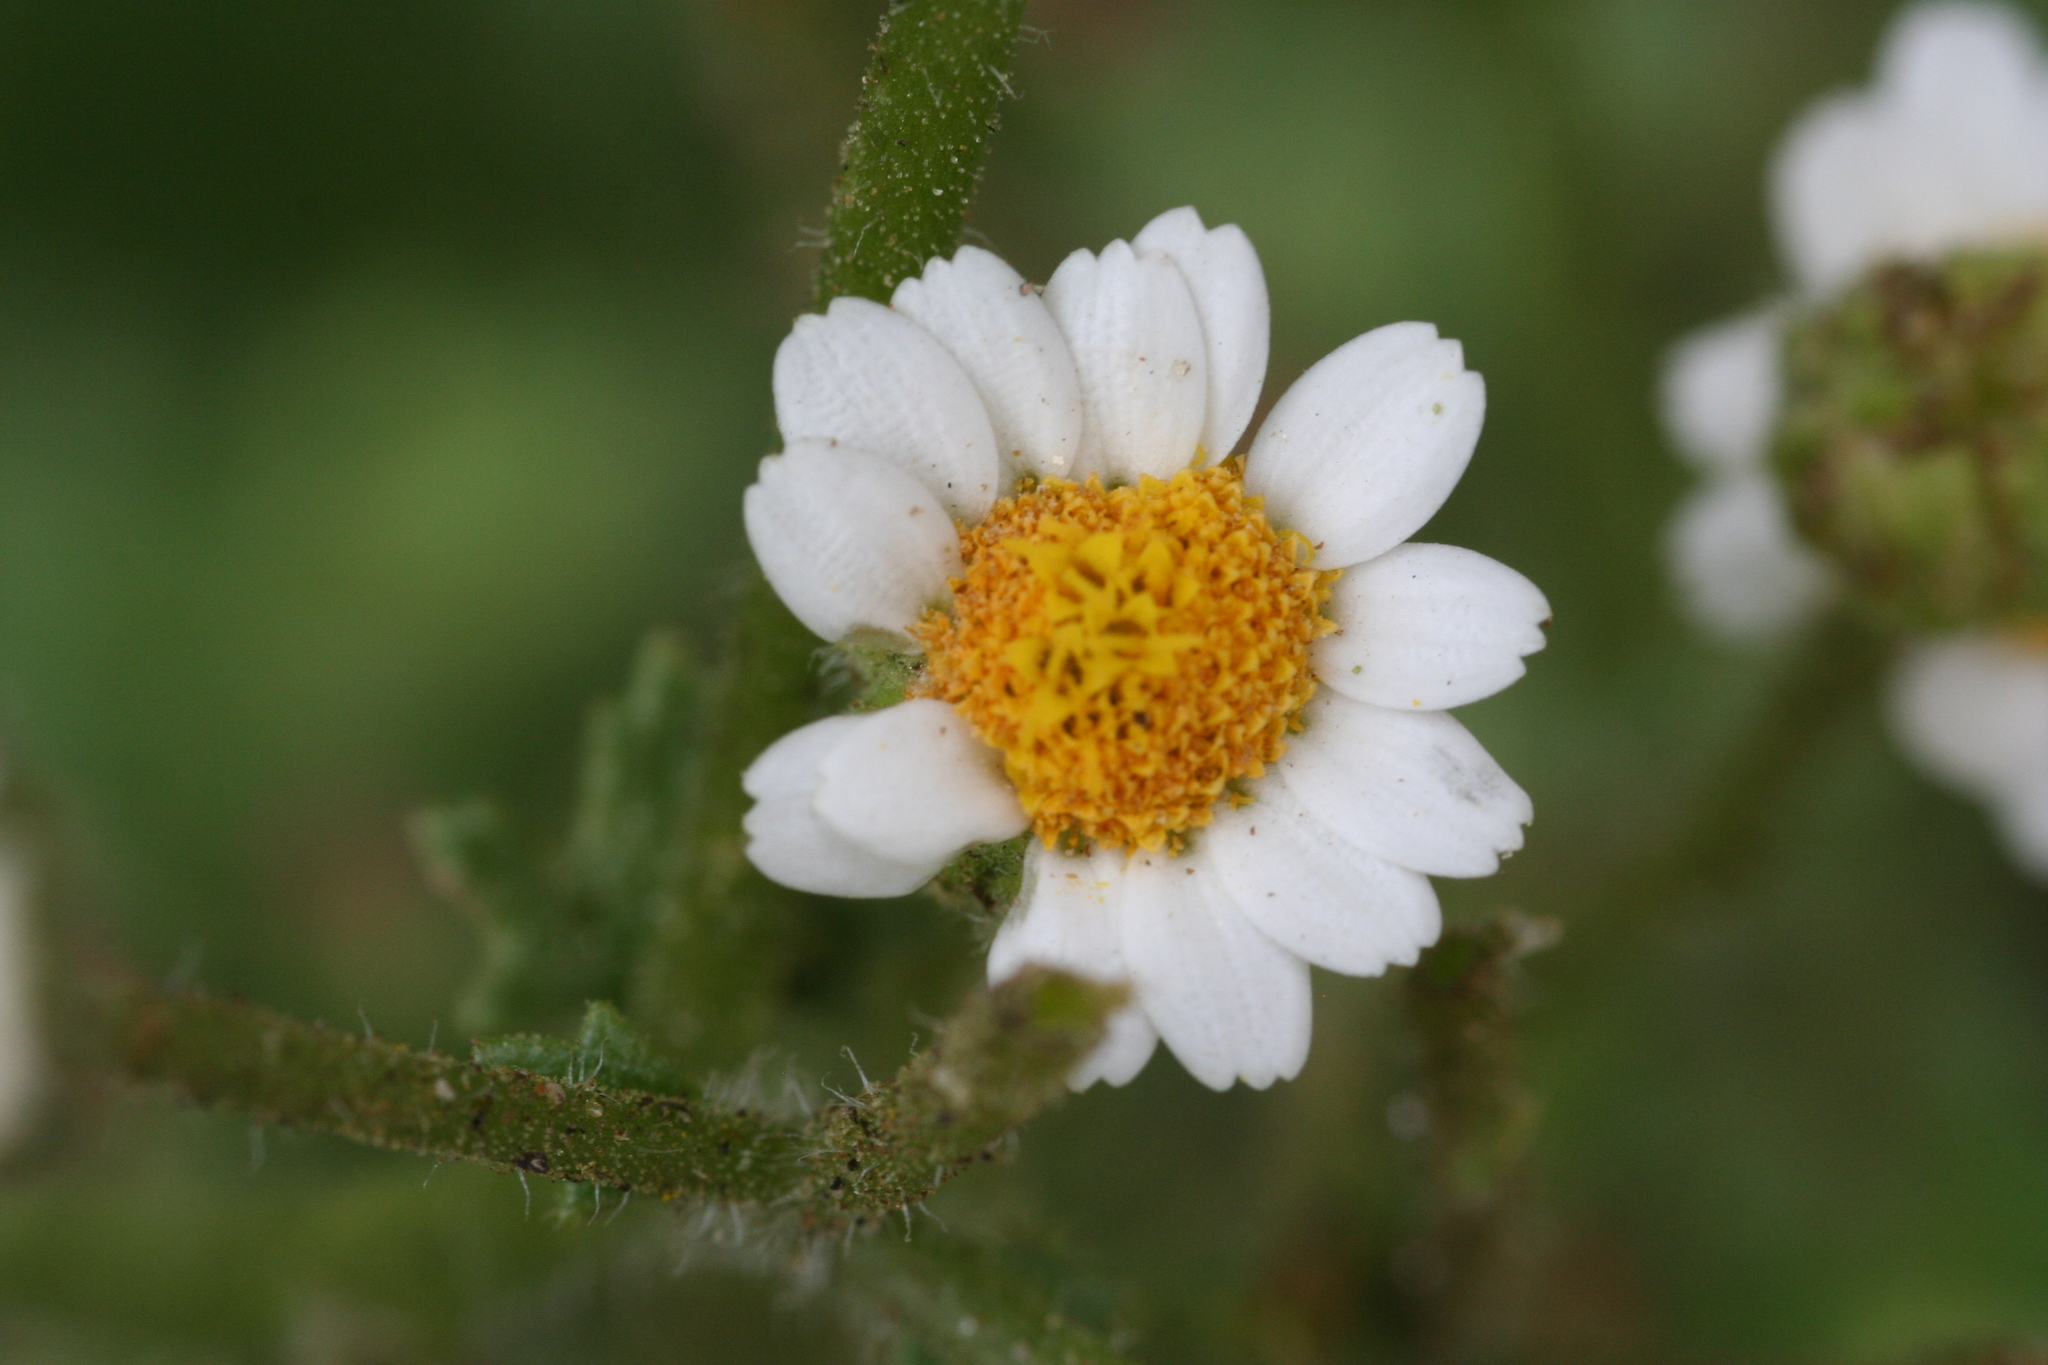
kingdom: Plantae
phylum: Tracheophyta
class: Magnoliopsida
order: Asterales
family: Asteraceae
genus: Laphamia
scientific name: Laphamia emoryi
